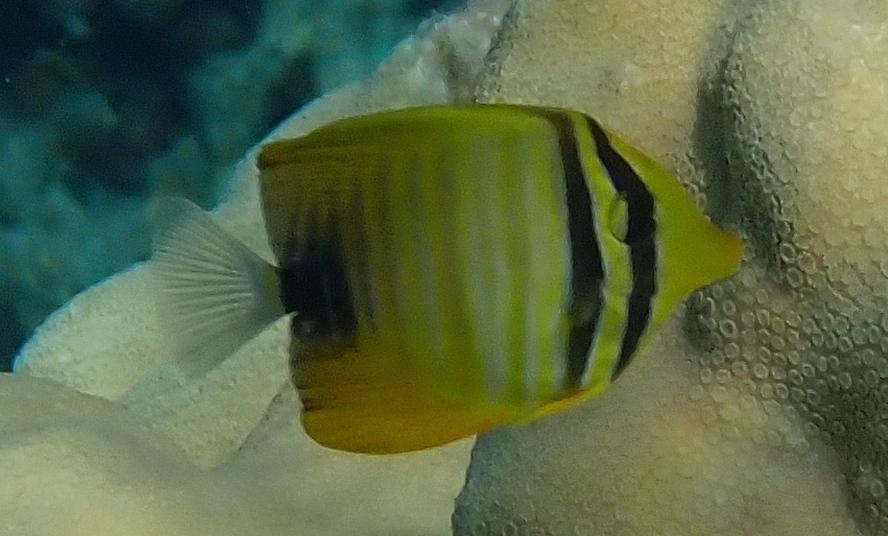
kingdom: Animalia
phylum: Chordata
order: Perciformes
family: Acanthuridae
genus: Zebrasoma
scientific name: Zebrasoma desjardinii
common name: Desjardin's sailfin tang
